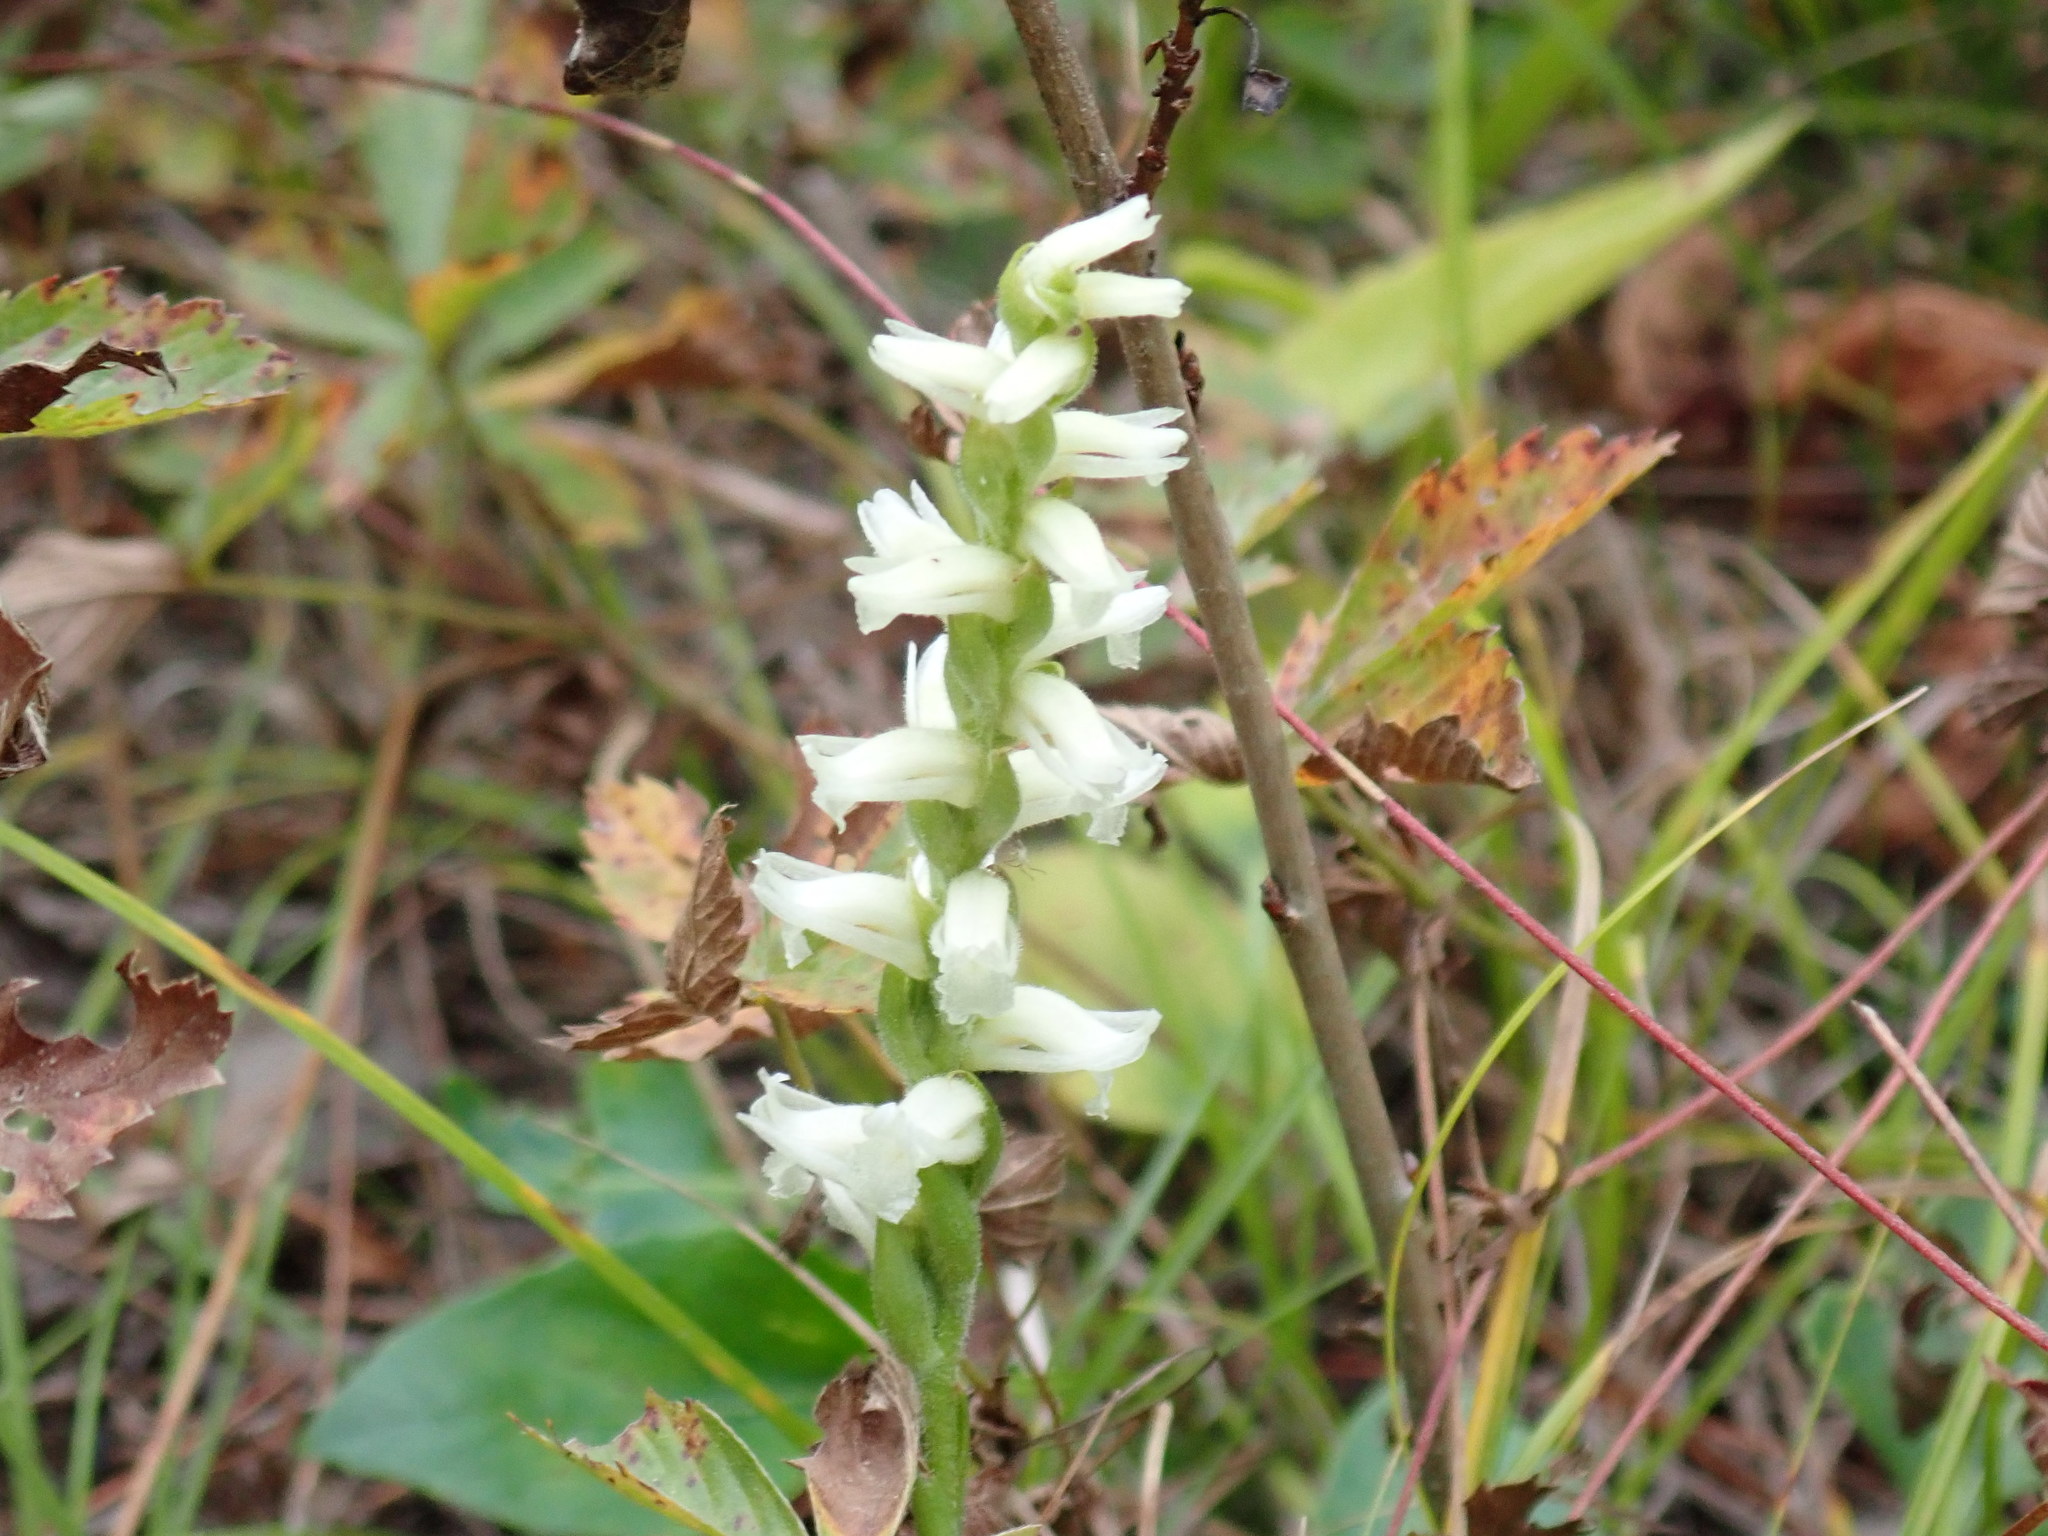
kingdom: Plantae
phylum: Tracheophyta
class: Liliopsida
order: Asparagales
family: Orchidaceae
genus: Spiranthes
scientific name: Spiranthes ochroleuca
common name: Yellow ladies'-tresses
